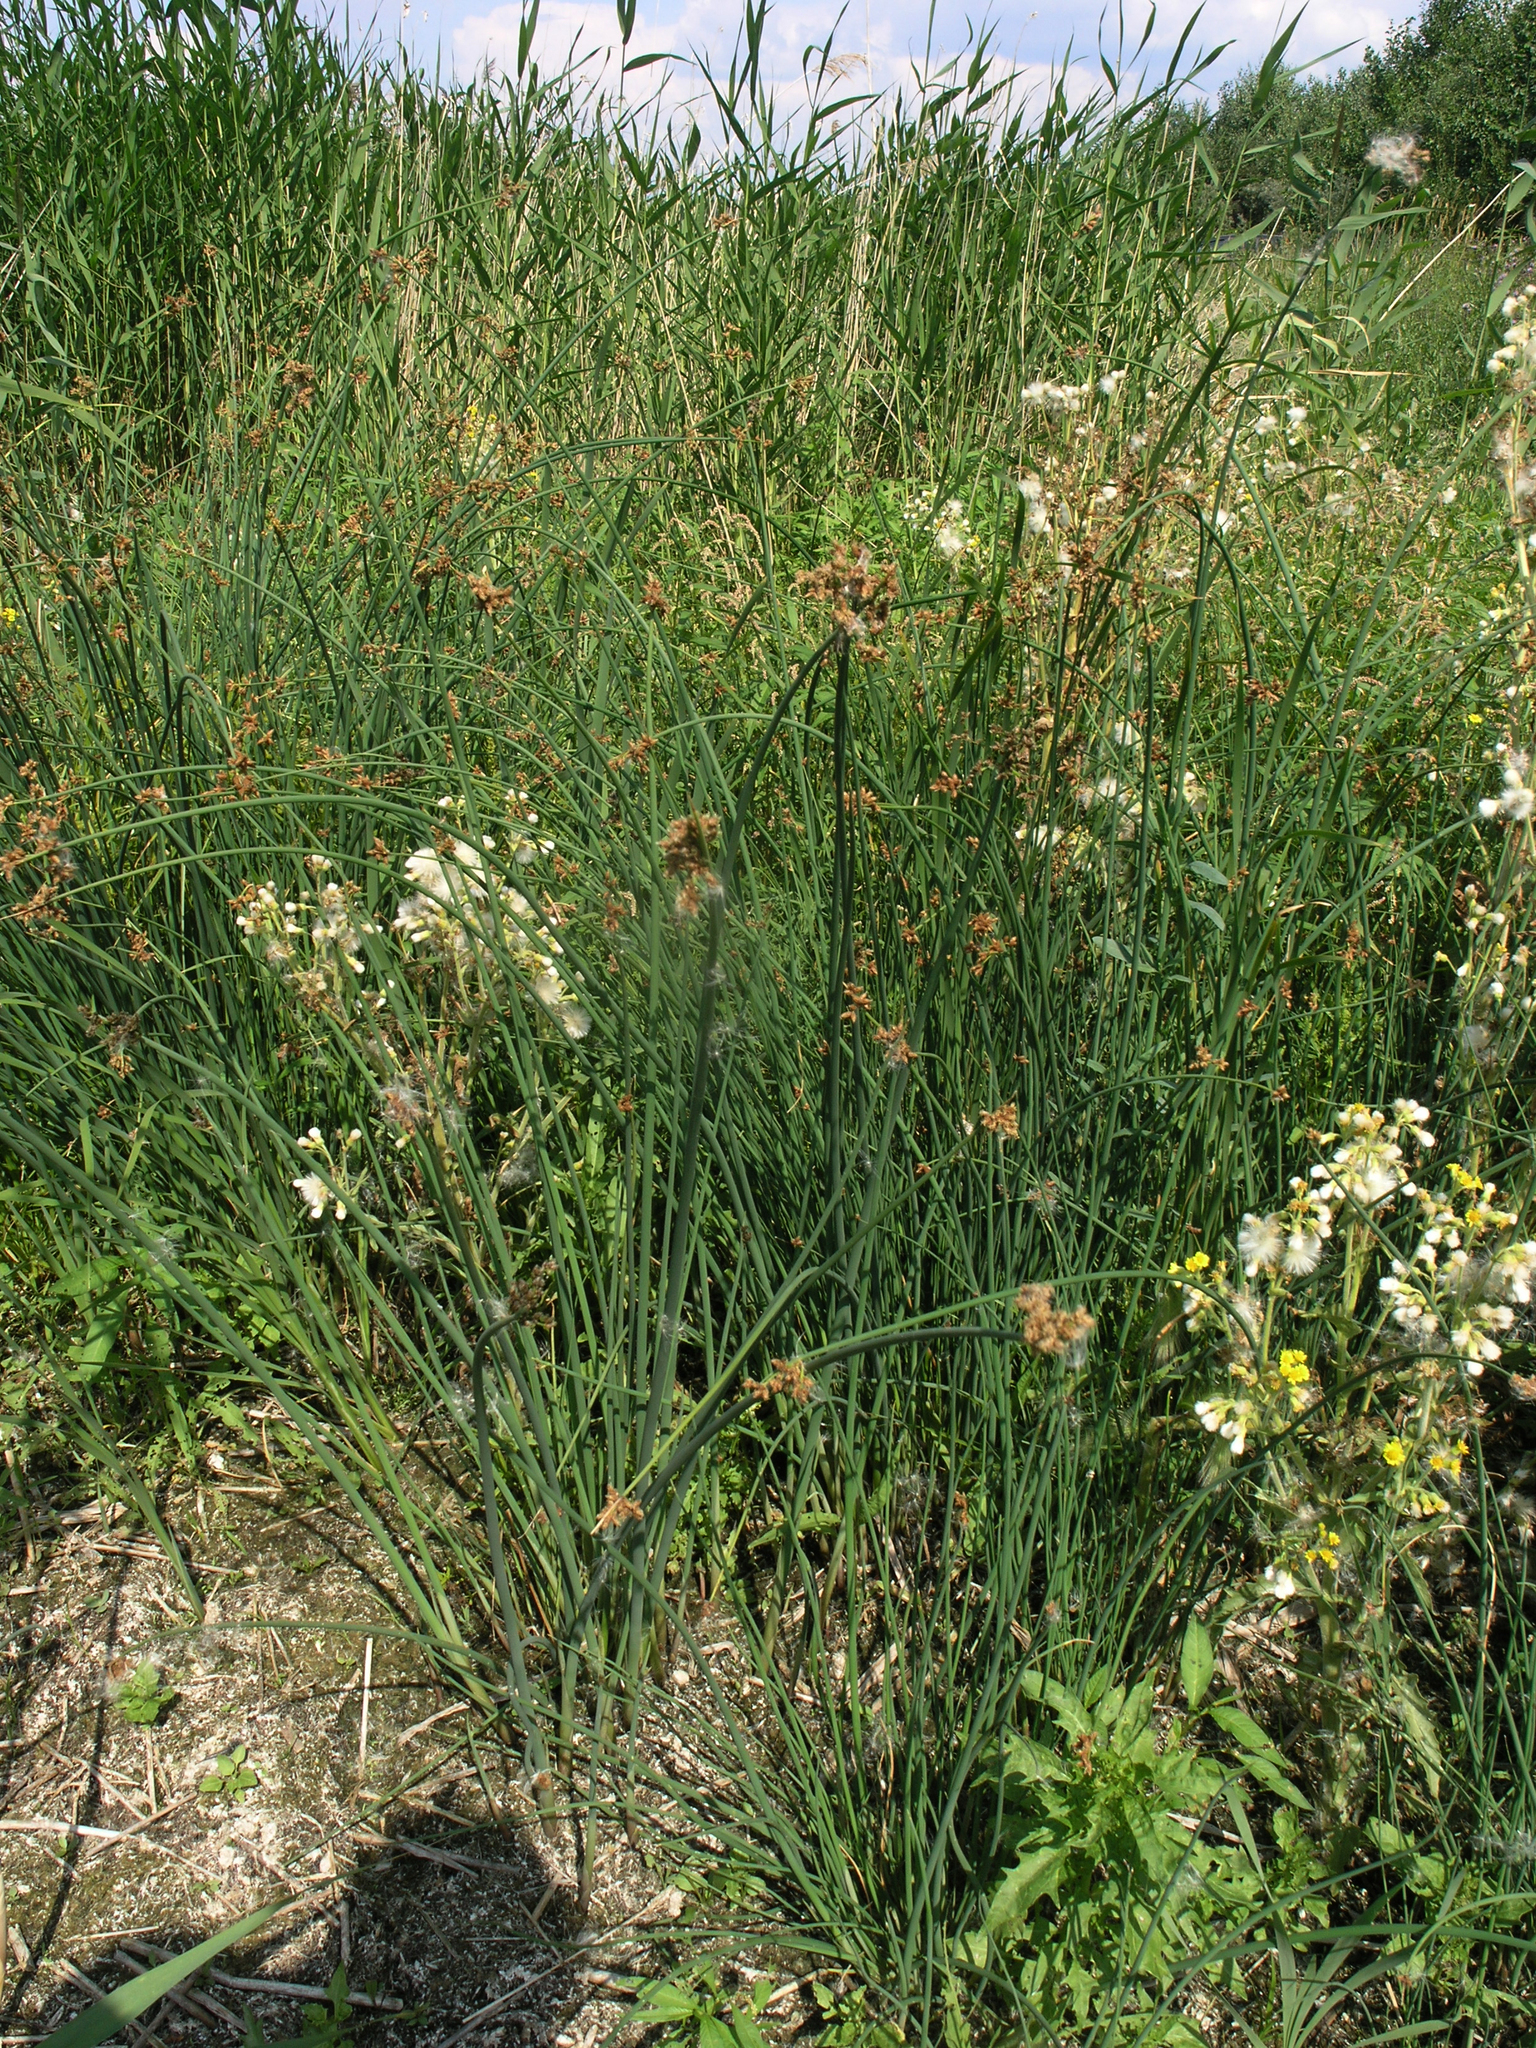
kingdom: Plantae
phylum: Tracheophyta
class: Liliopsida
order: Poales
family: Cyperaceae
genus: Schoenoplectus
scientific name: Schoenoplectus lacustris
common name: Common club-rush
